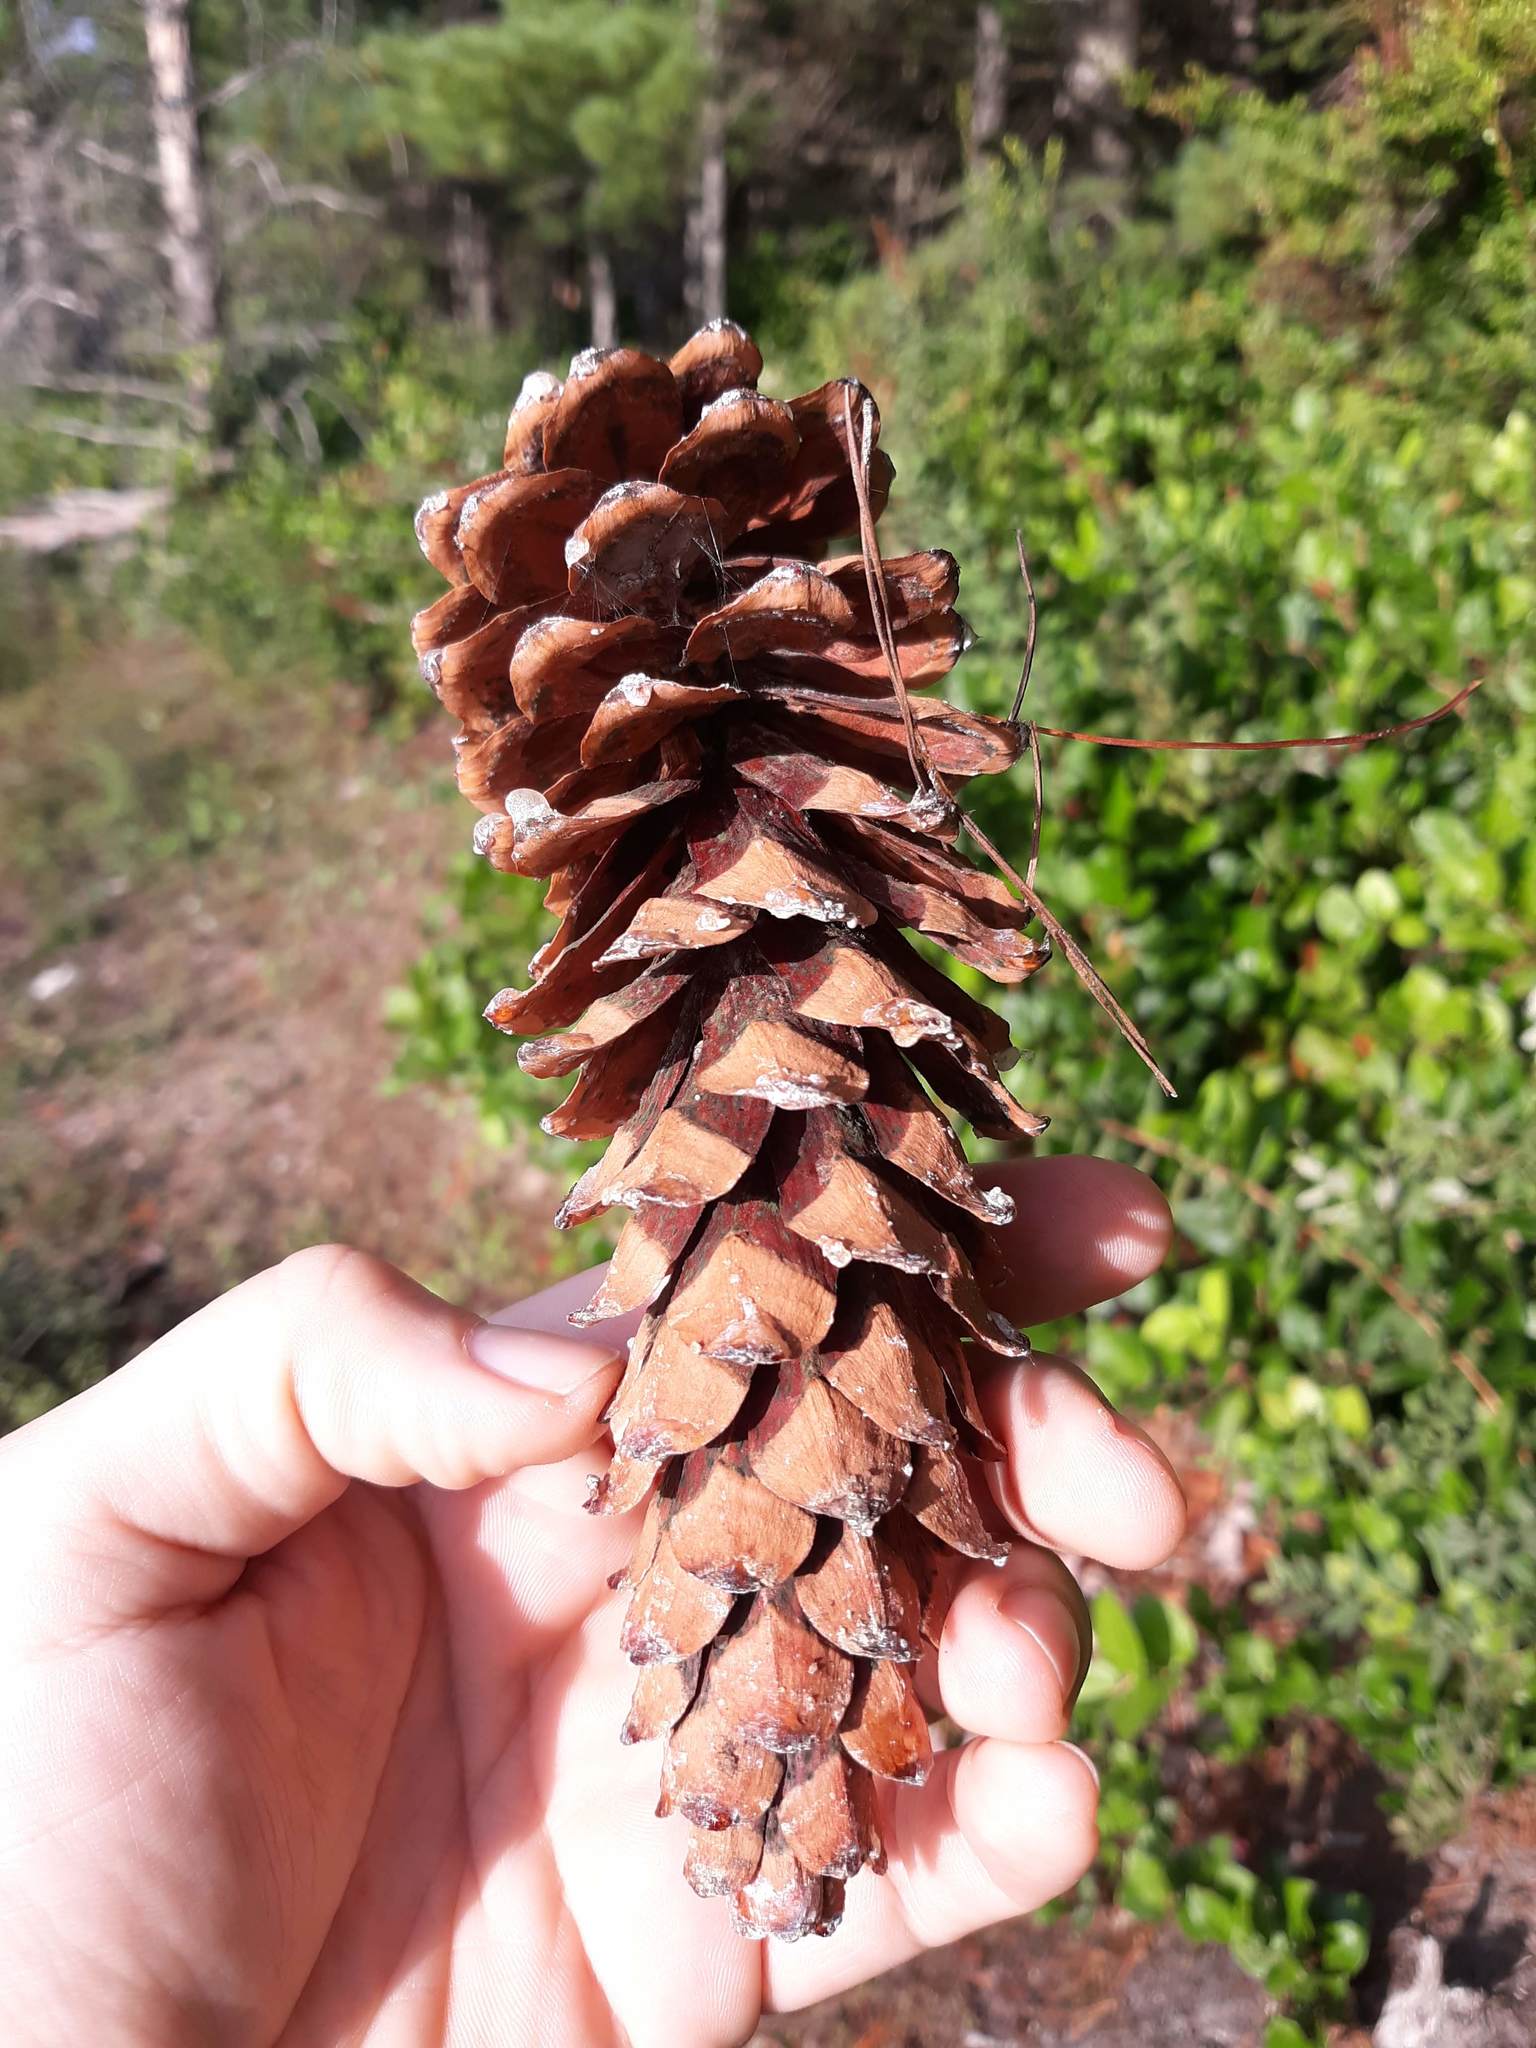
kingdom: Plantae
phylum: Tracheophyta
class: Pinopsida
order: Pinales
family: Pinaceae
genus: Pinus
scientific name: Pinus monticola
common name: Western white pine
